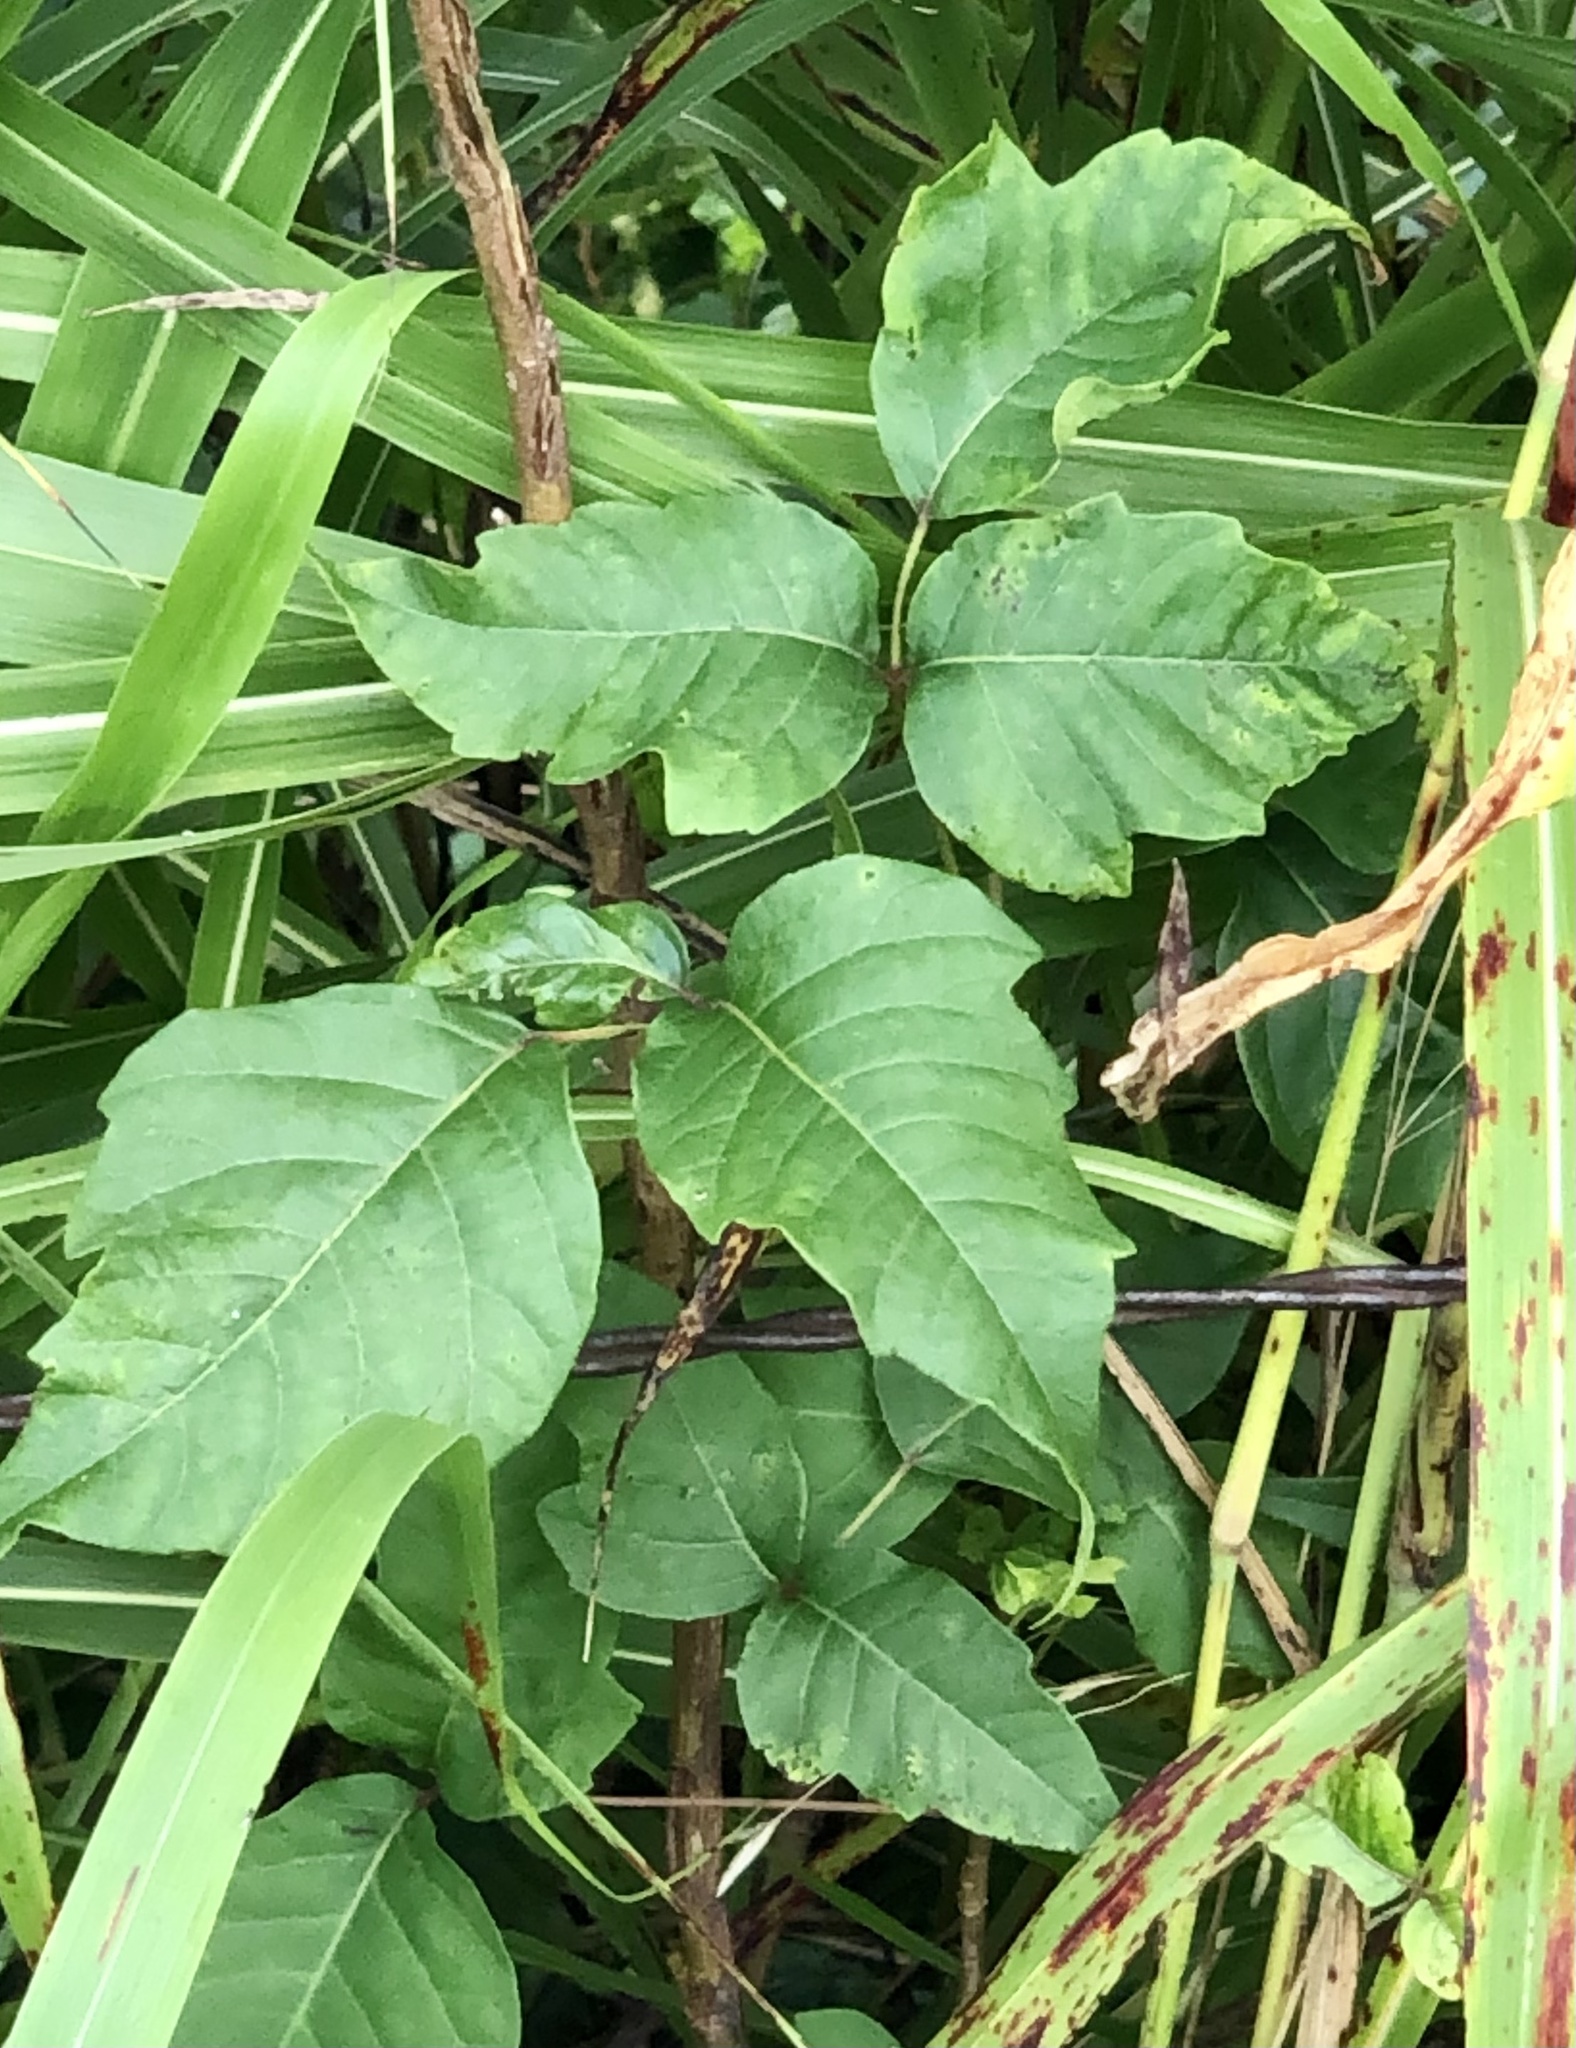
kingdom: Plantae
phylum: Tracheophyta
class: Magnoliopsida
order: Sapindales
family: Anacardiaceae
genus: Toxicodendron
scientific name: Toxicodendron radicans
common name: Poison ivy
